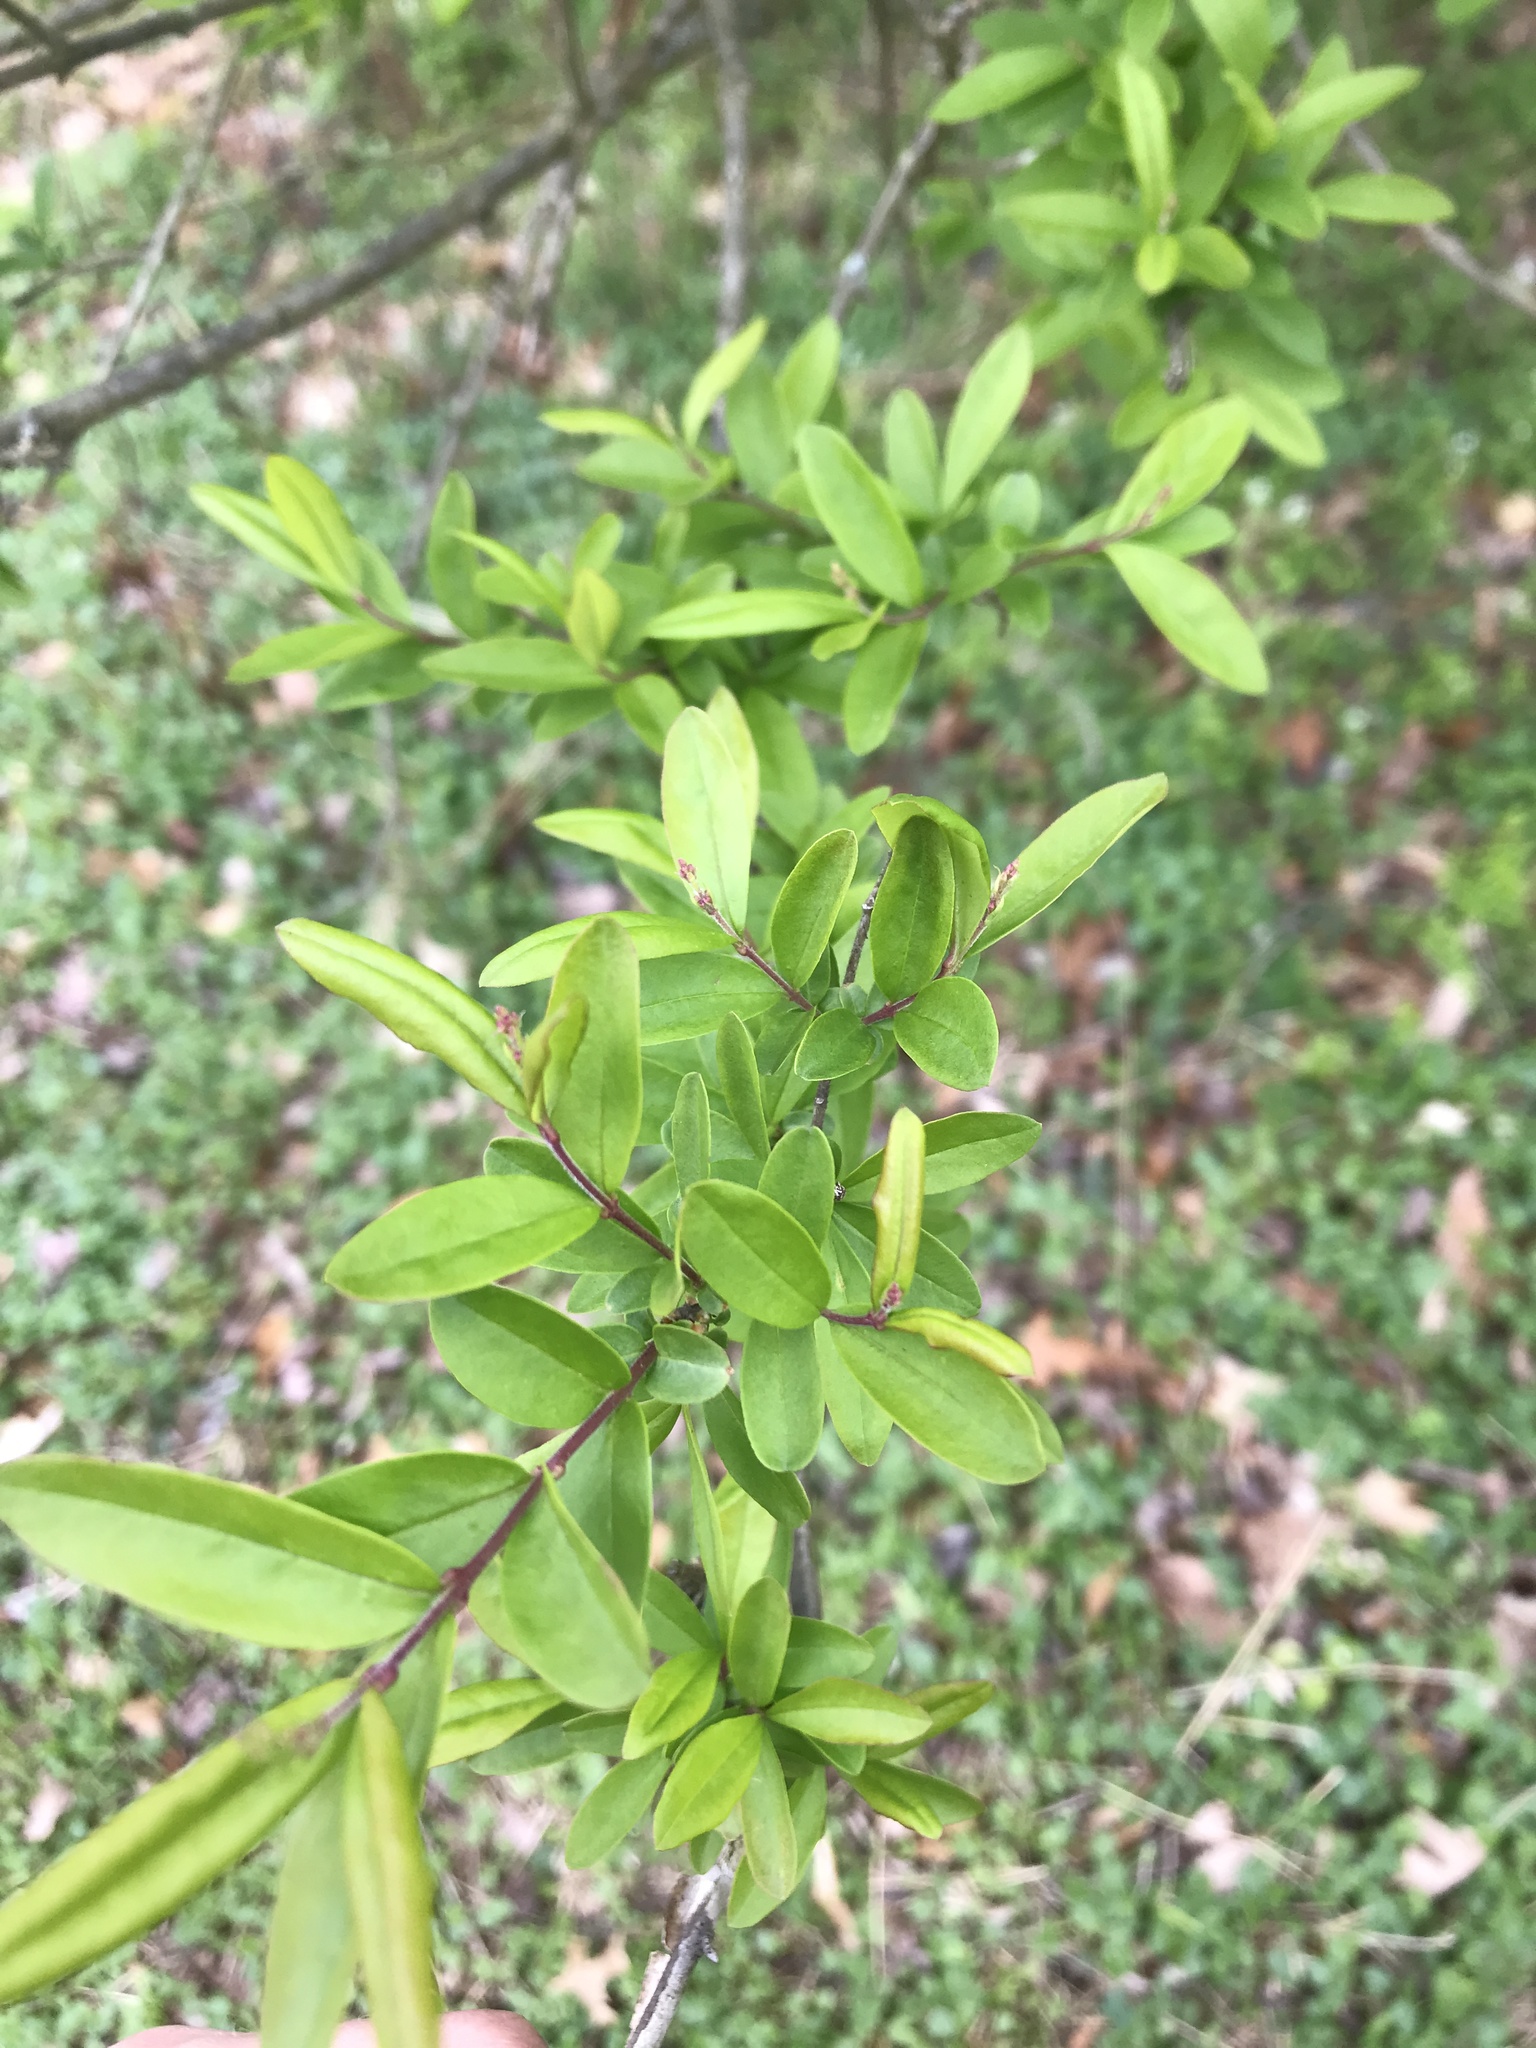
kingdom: Plantae
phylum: Tracheophyta
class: Magnoliopsida
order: Lamiales
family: Oleaceae
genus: Ligustrum
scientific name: Ligustrum obtusifolium
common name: Border privet
